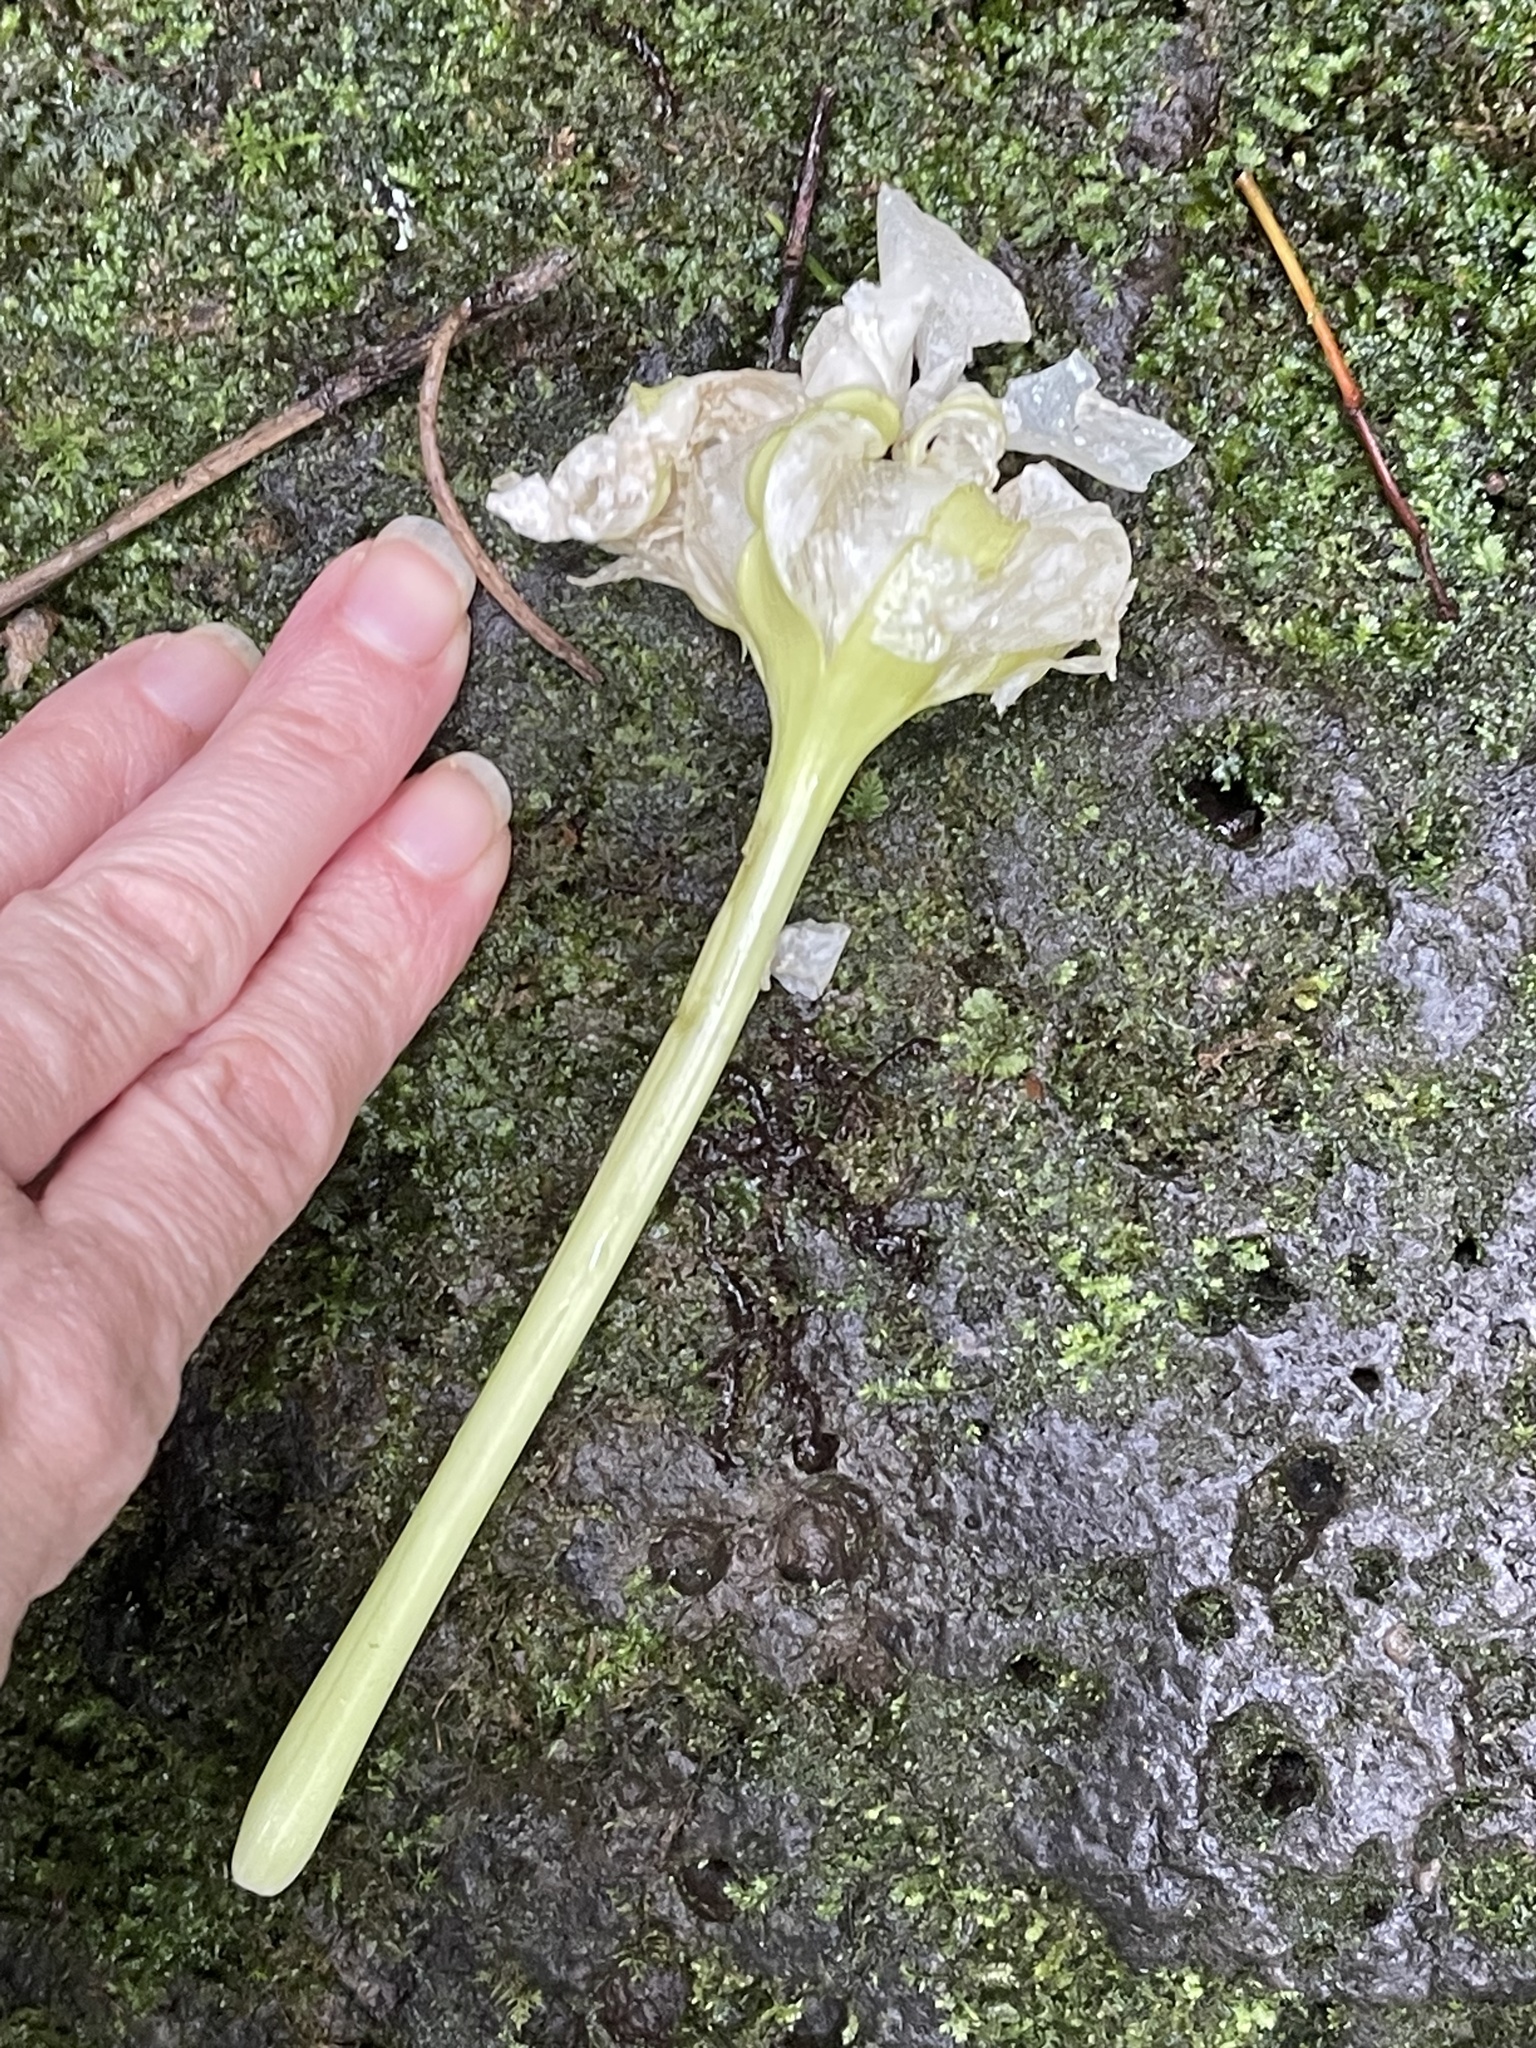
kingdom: Plantae
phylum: Tracheophyta
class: Magnoliopsida
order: Solanales
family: Convolvulaceae
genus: Ipomoea
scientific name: Ipomoea alba
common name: Moonflower
